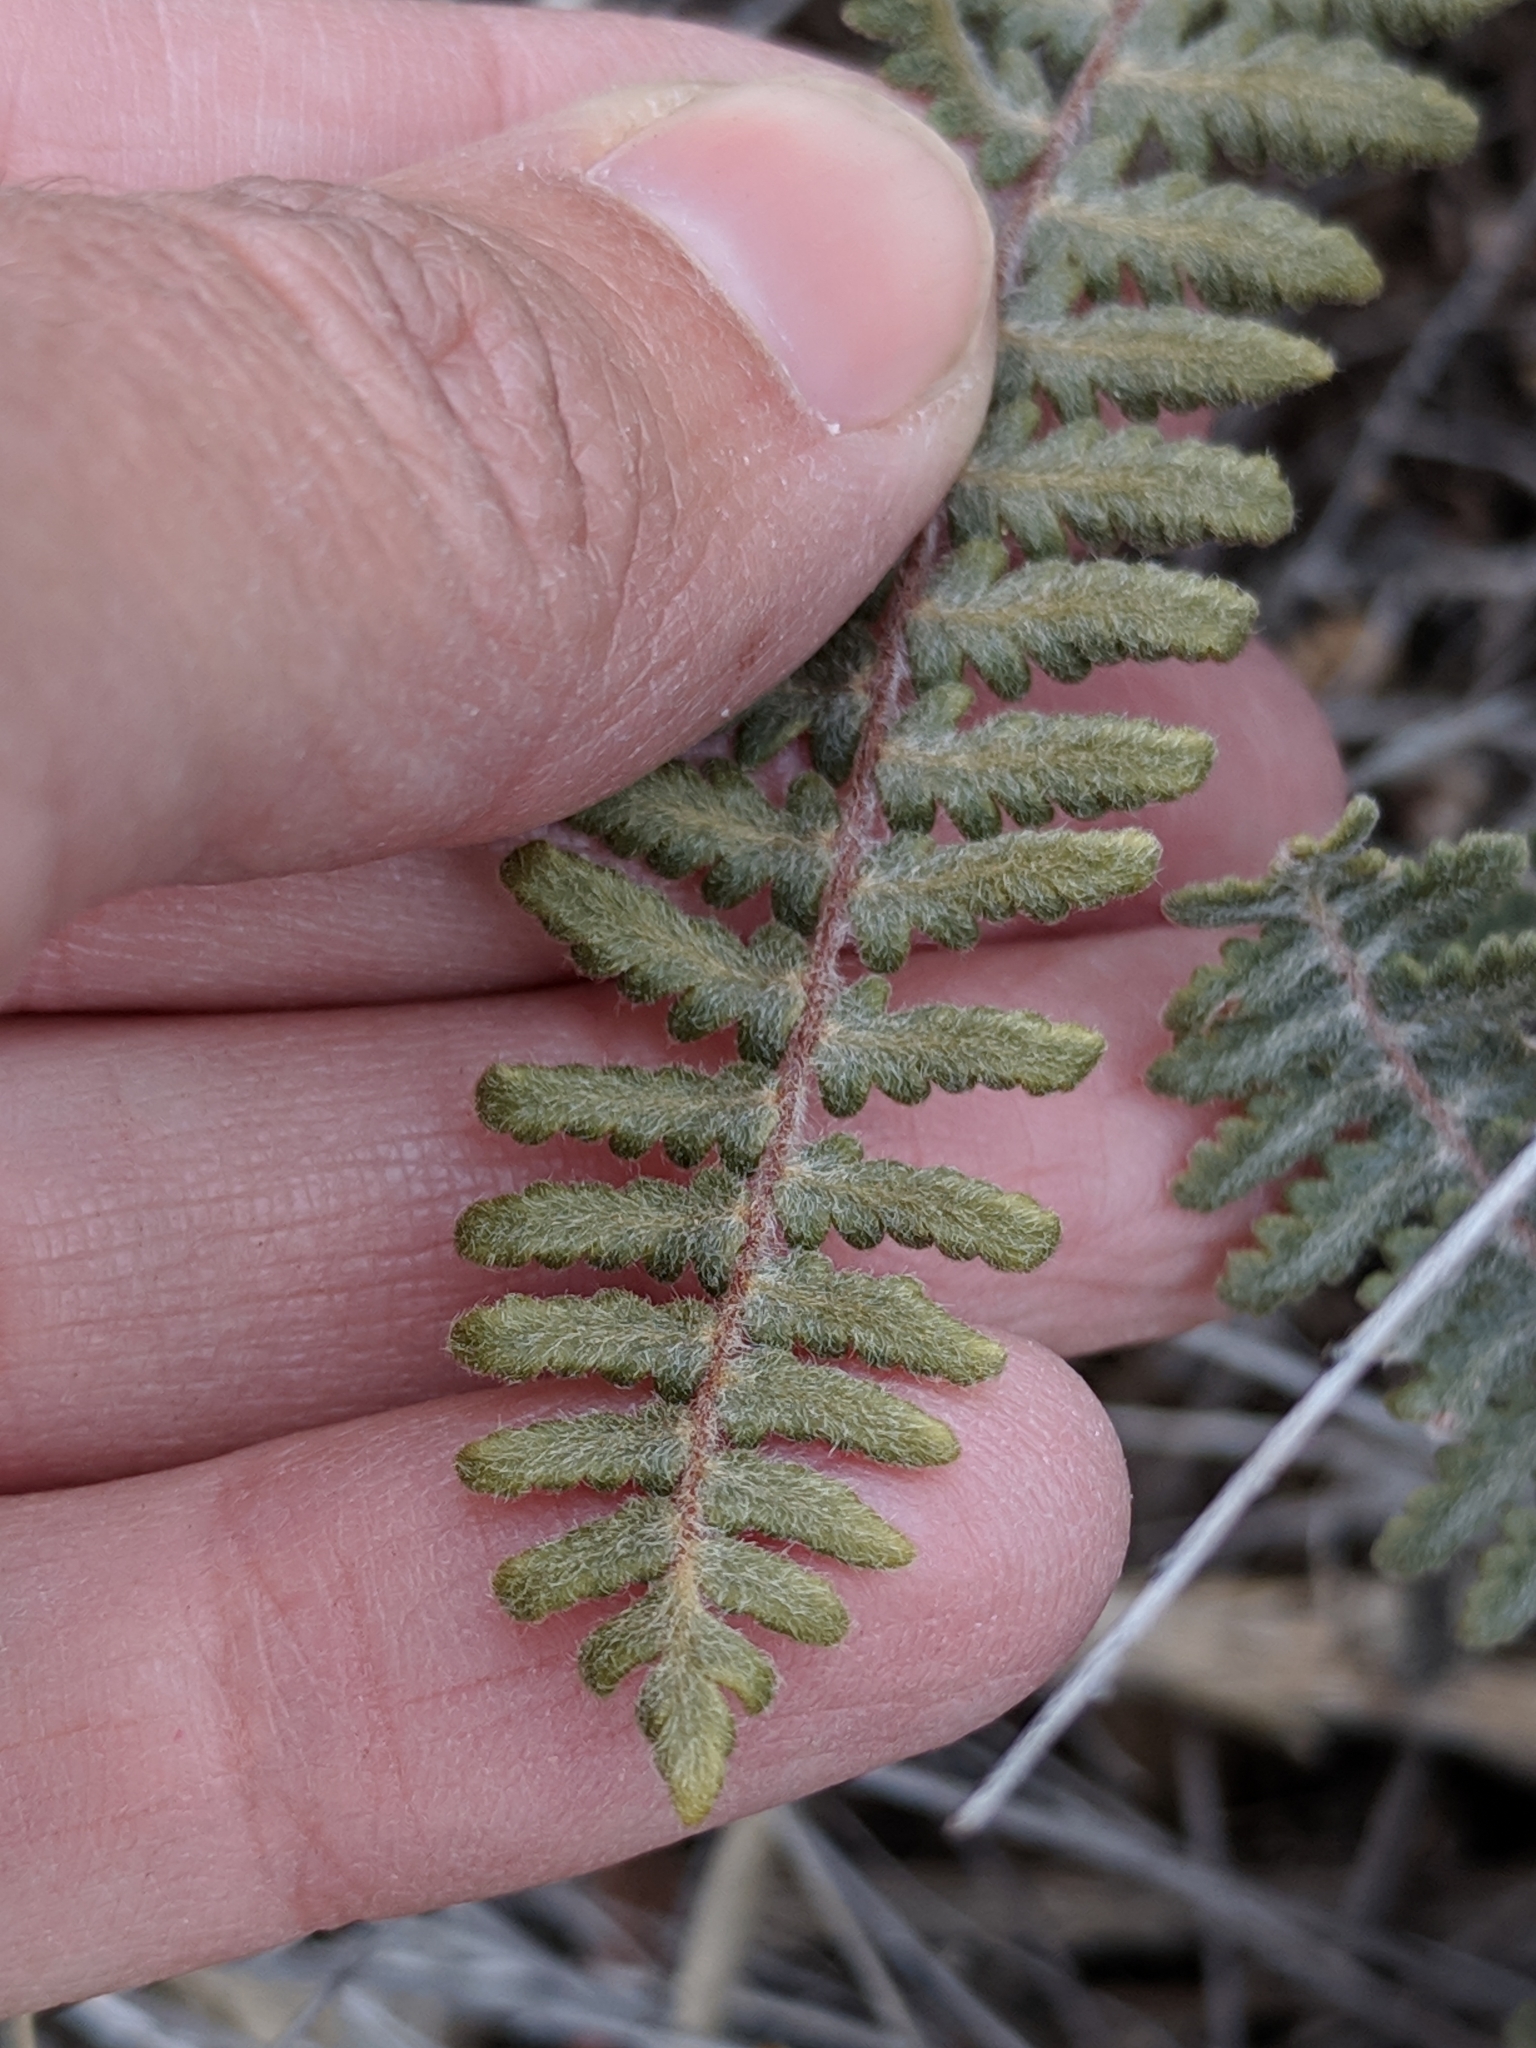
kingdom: Plantae
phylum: Tracheophyta
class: Polypodiopsida
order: Polypodiales
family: Pteridaceae
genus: Myriopteris
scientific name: Myriopteris aurea
